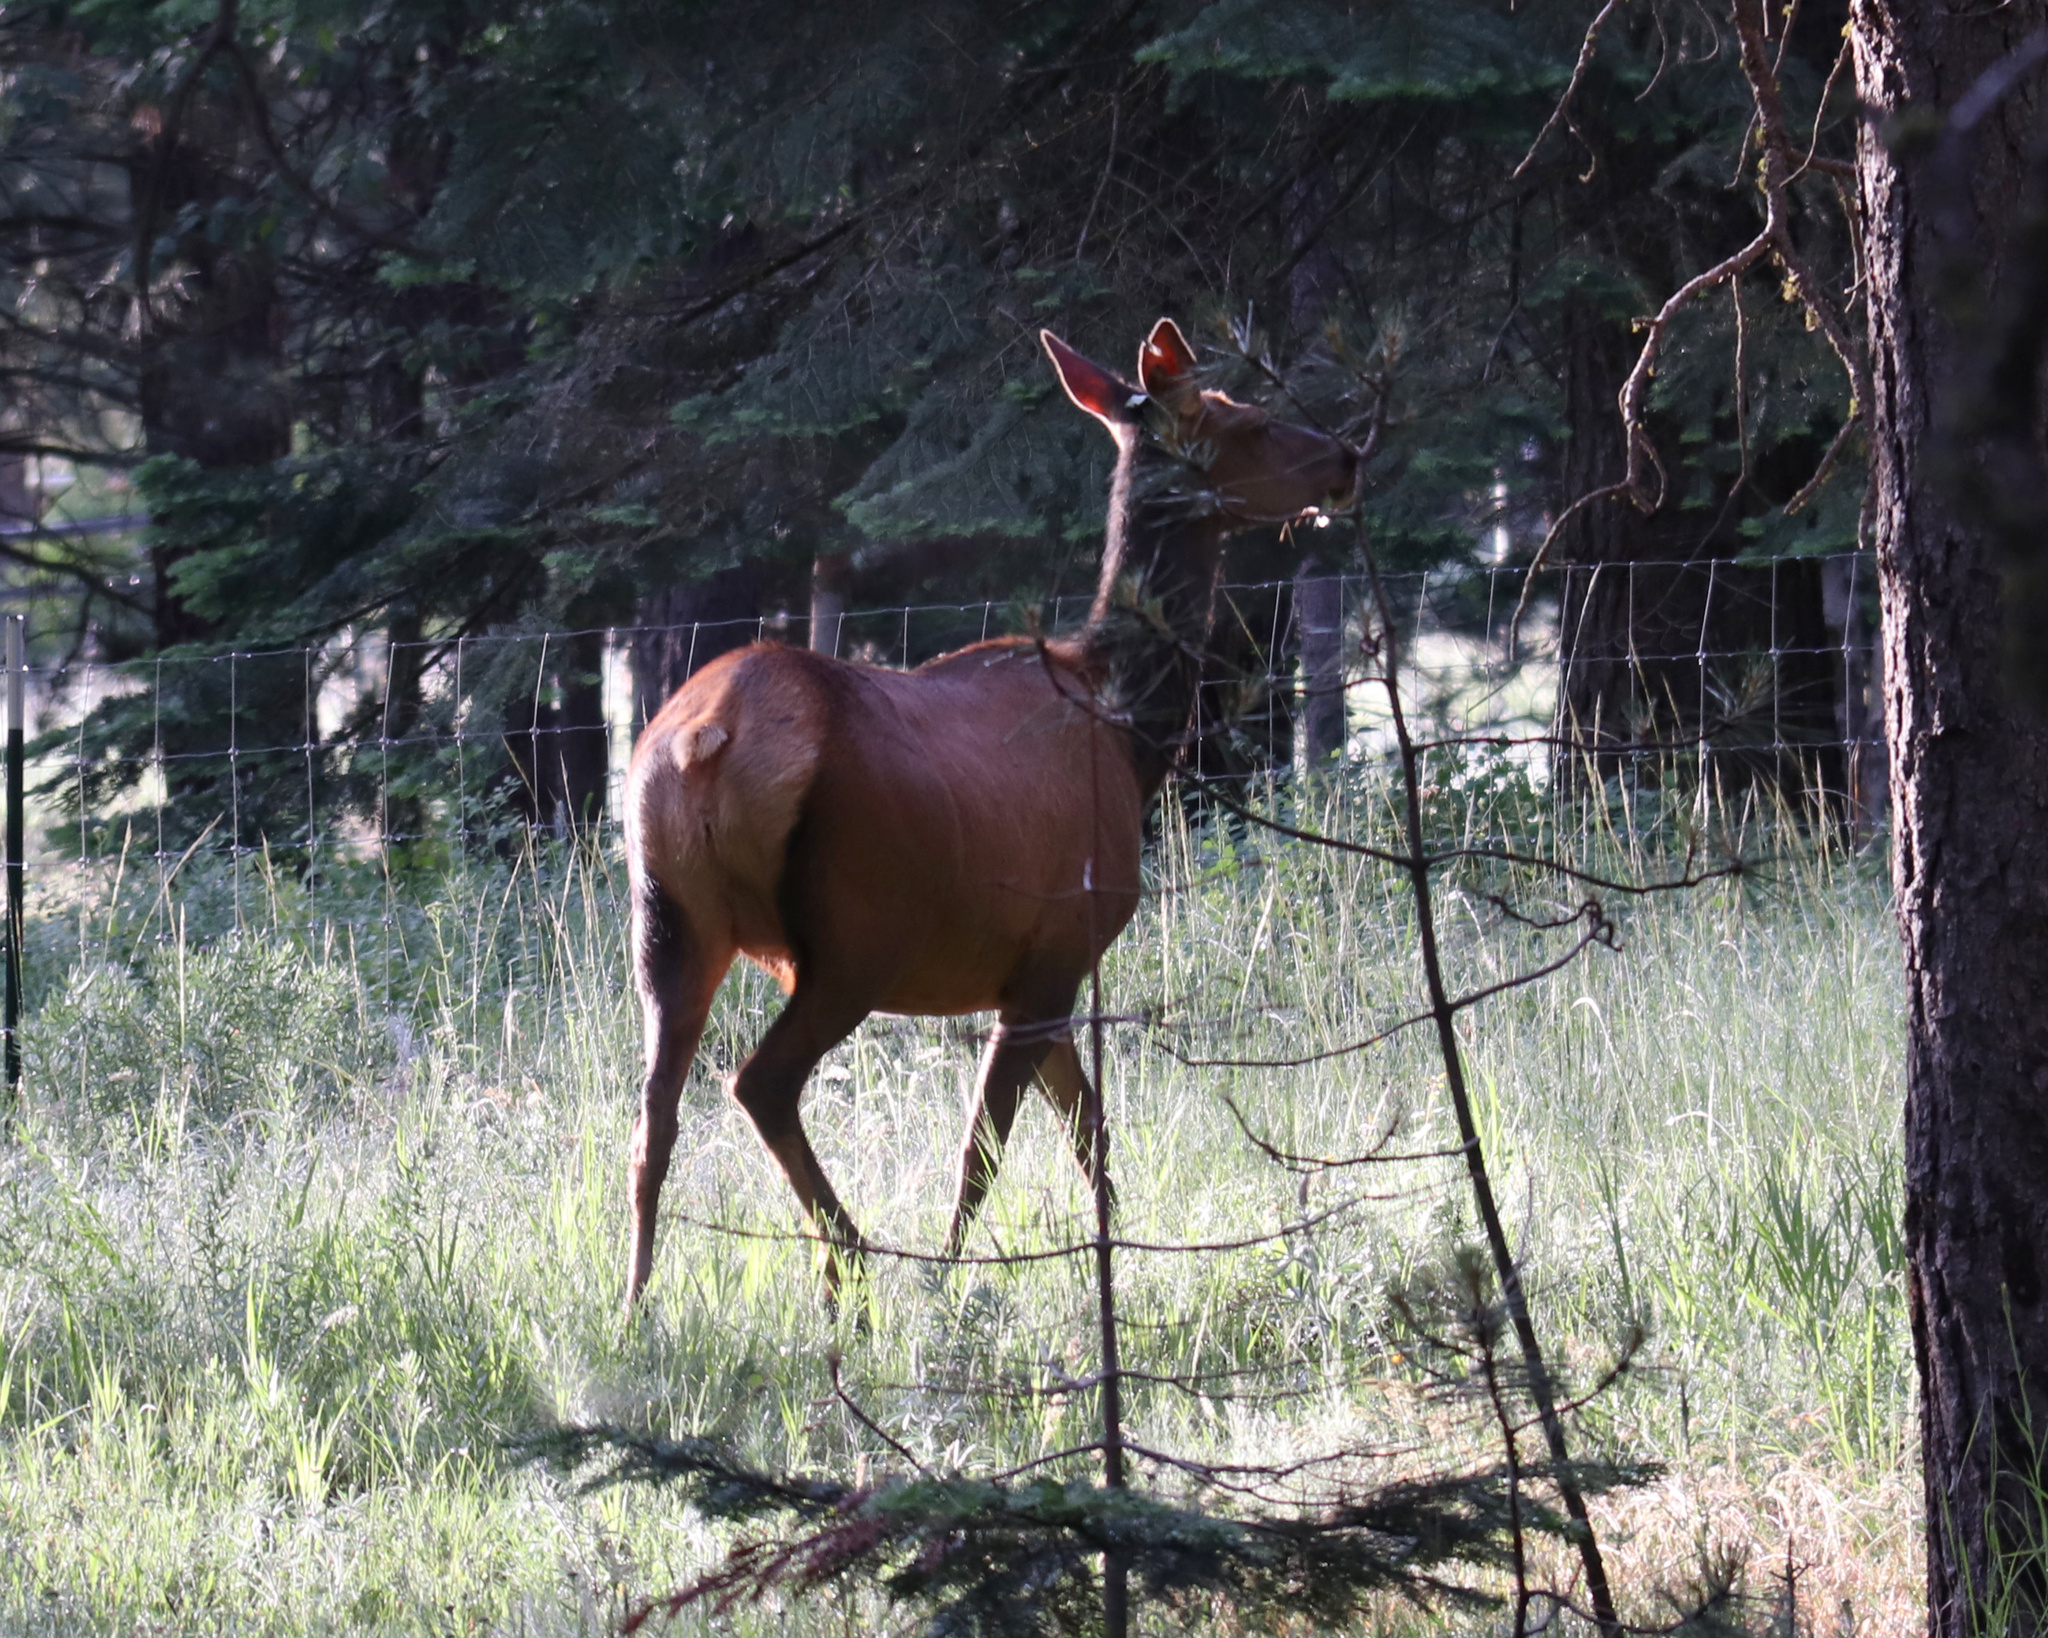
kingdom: Animalia
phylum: Chordata
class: Mammalia
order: Artiodactyla
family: Cervidae
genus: Cervus
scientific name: Cervus elaphus
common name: Red deer
